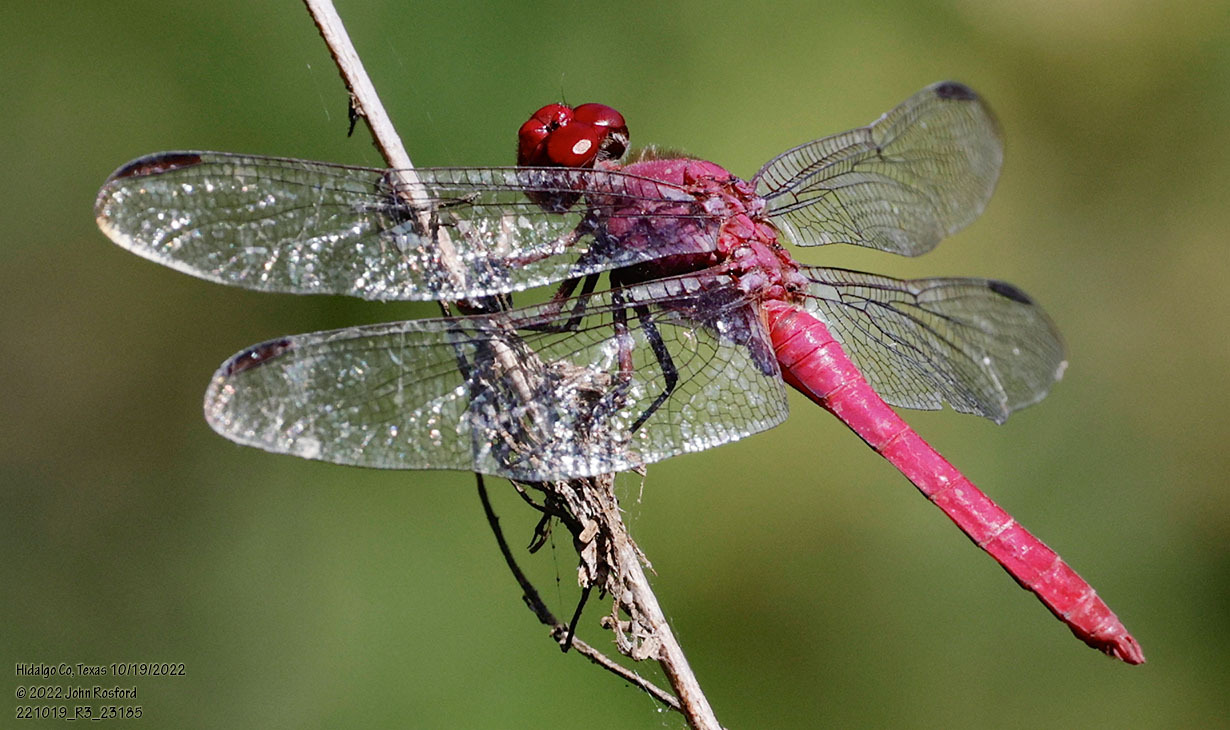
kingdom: Animalia
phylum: Arthropoda
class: Insecta
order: Odonata
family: Libellulidae
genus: Orthemis
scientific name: Orthemis discolor
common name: Carmine skimmer
